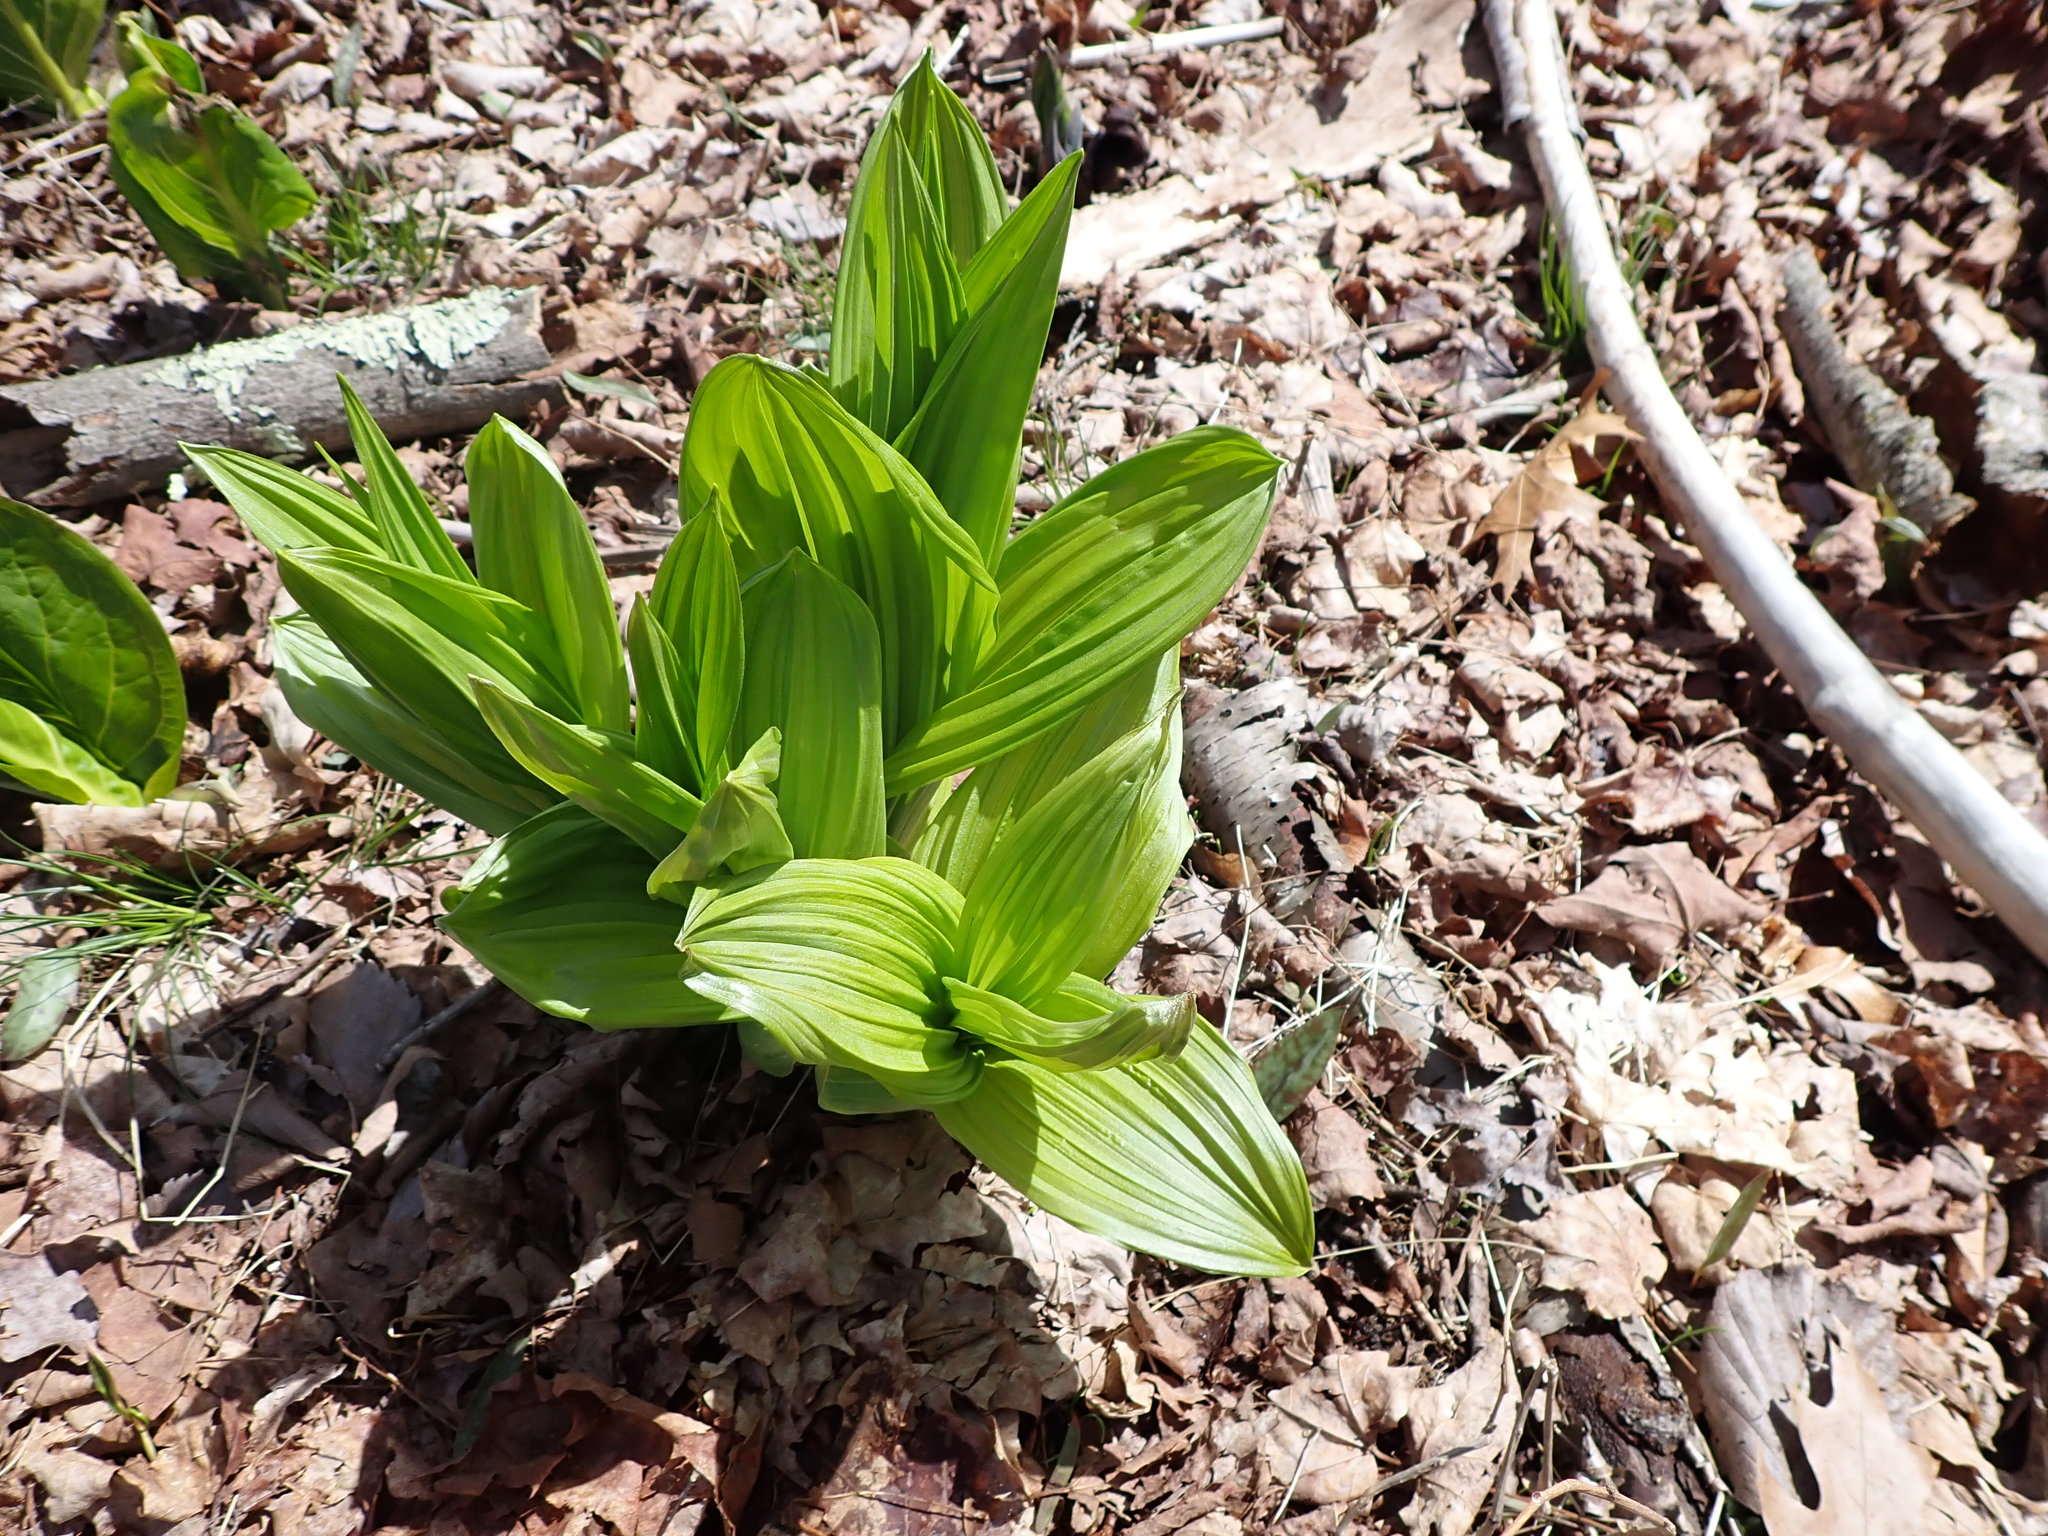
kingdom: Plantae
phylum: Tracheophyta
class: Liliopsida
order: Liliales
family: Melanthiaceae
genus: Veratrum
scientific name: Veratrum viride
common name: American false hellebore
